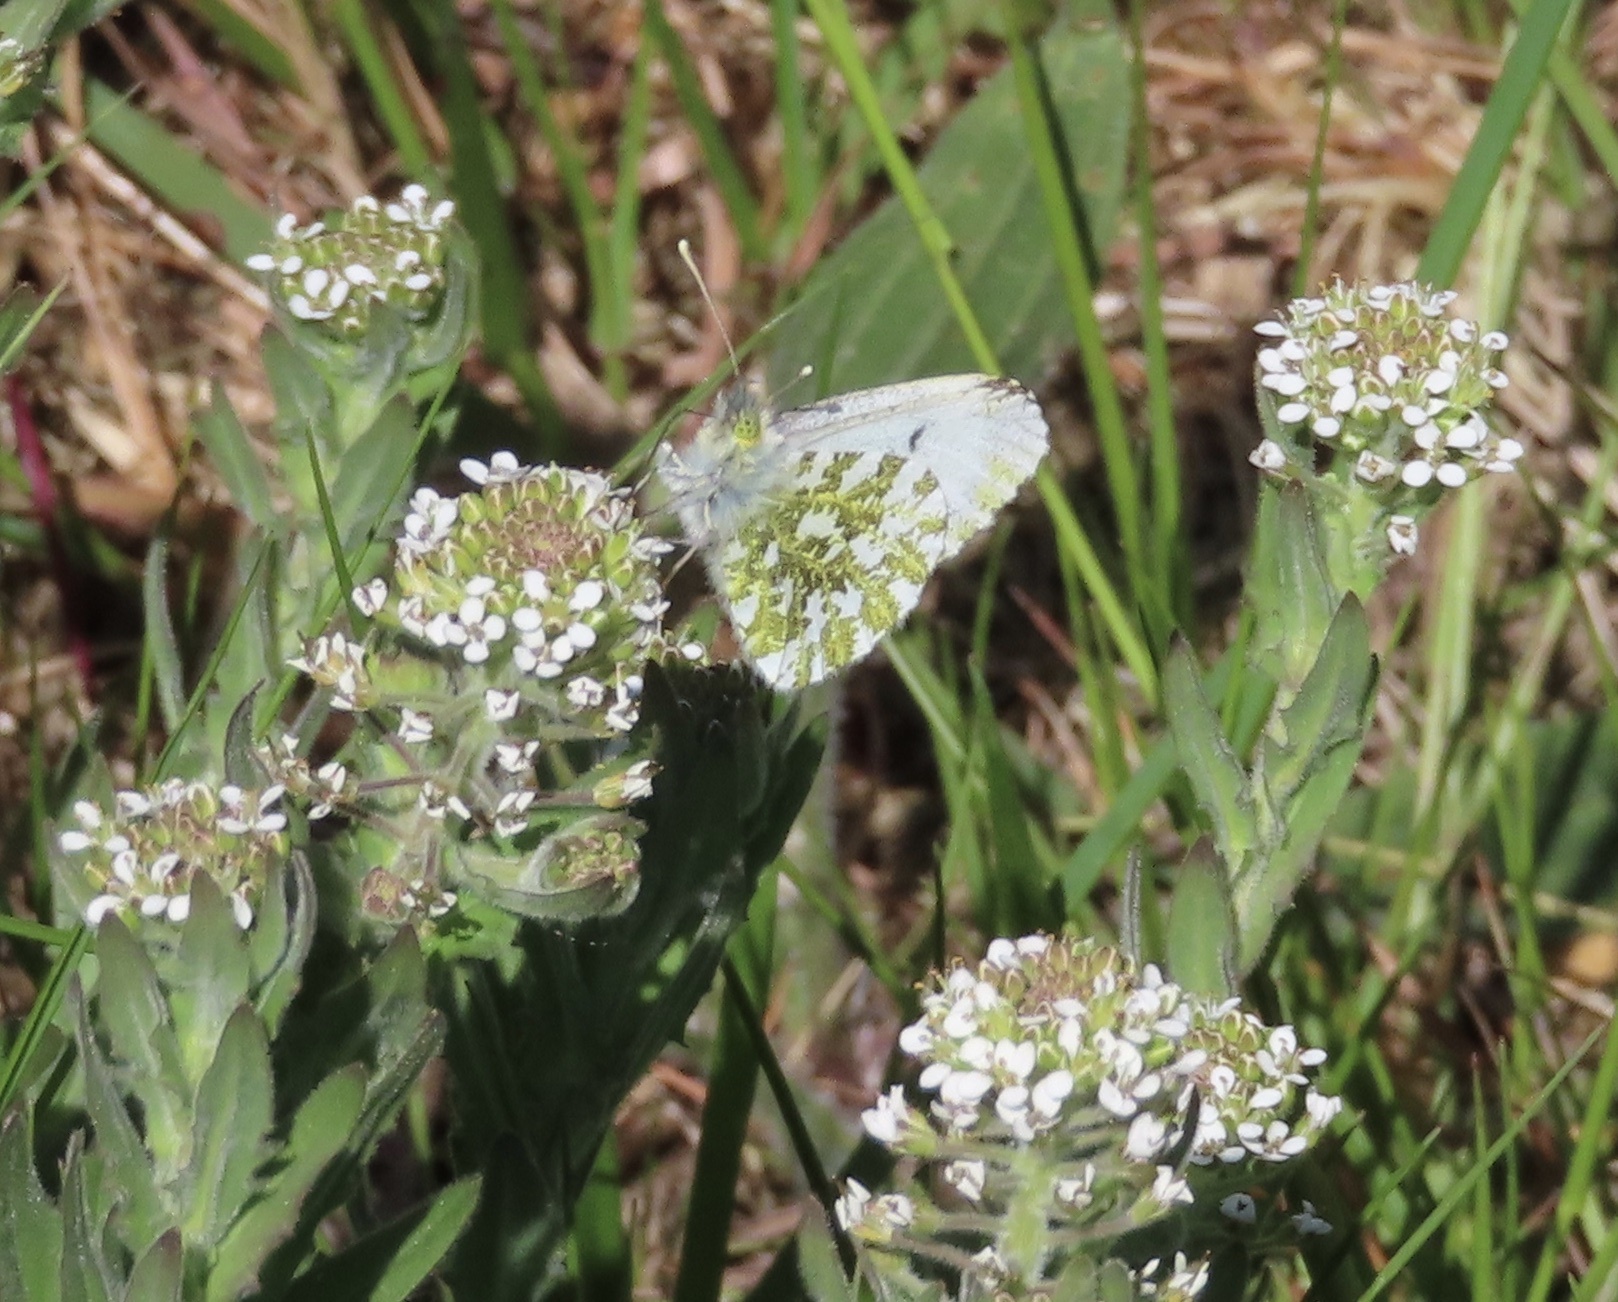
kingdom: Animalia
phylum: Arthropoda
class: Insecta
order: Lepidoptera
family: Pieridae
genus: Anthocharis
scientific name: Anthocharis cardamines
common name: Orange-tip
